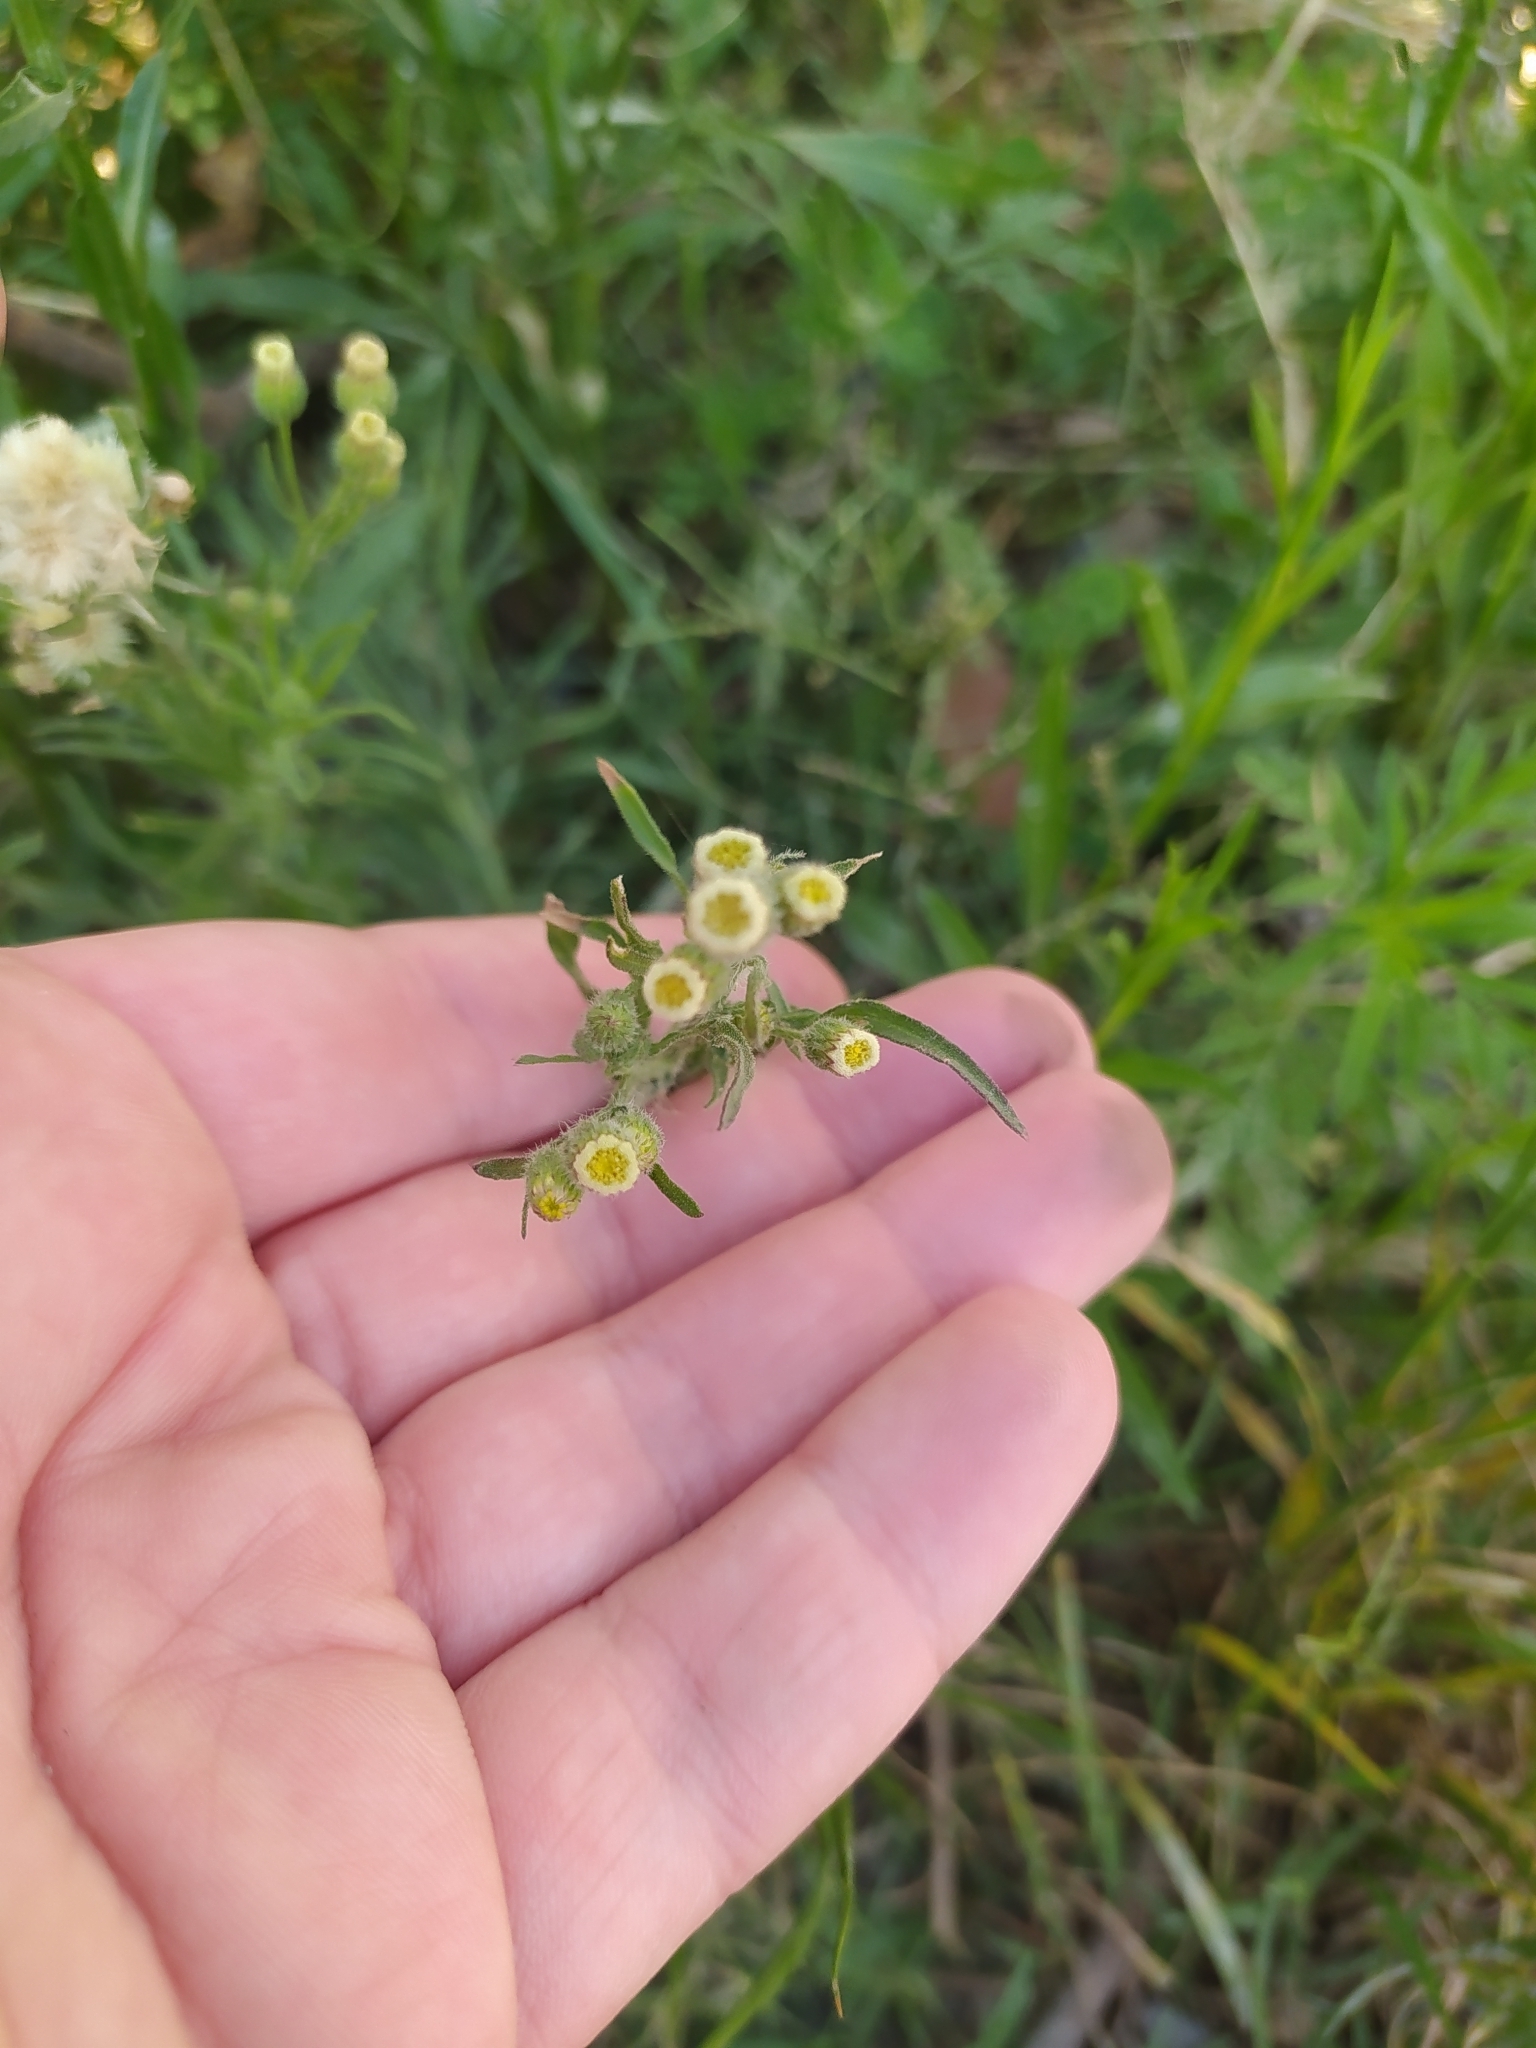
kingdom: Plantae
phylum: Tracheophyta
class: Magnoliopsida
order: Asterales
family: Asteraceae
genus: Erigeron
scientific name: Erigeron bonariensis
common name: Argentine fleabane
